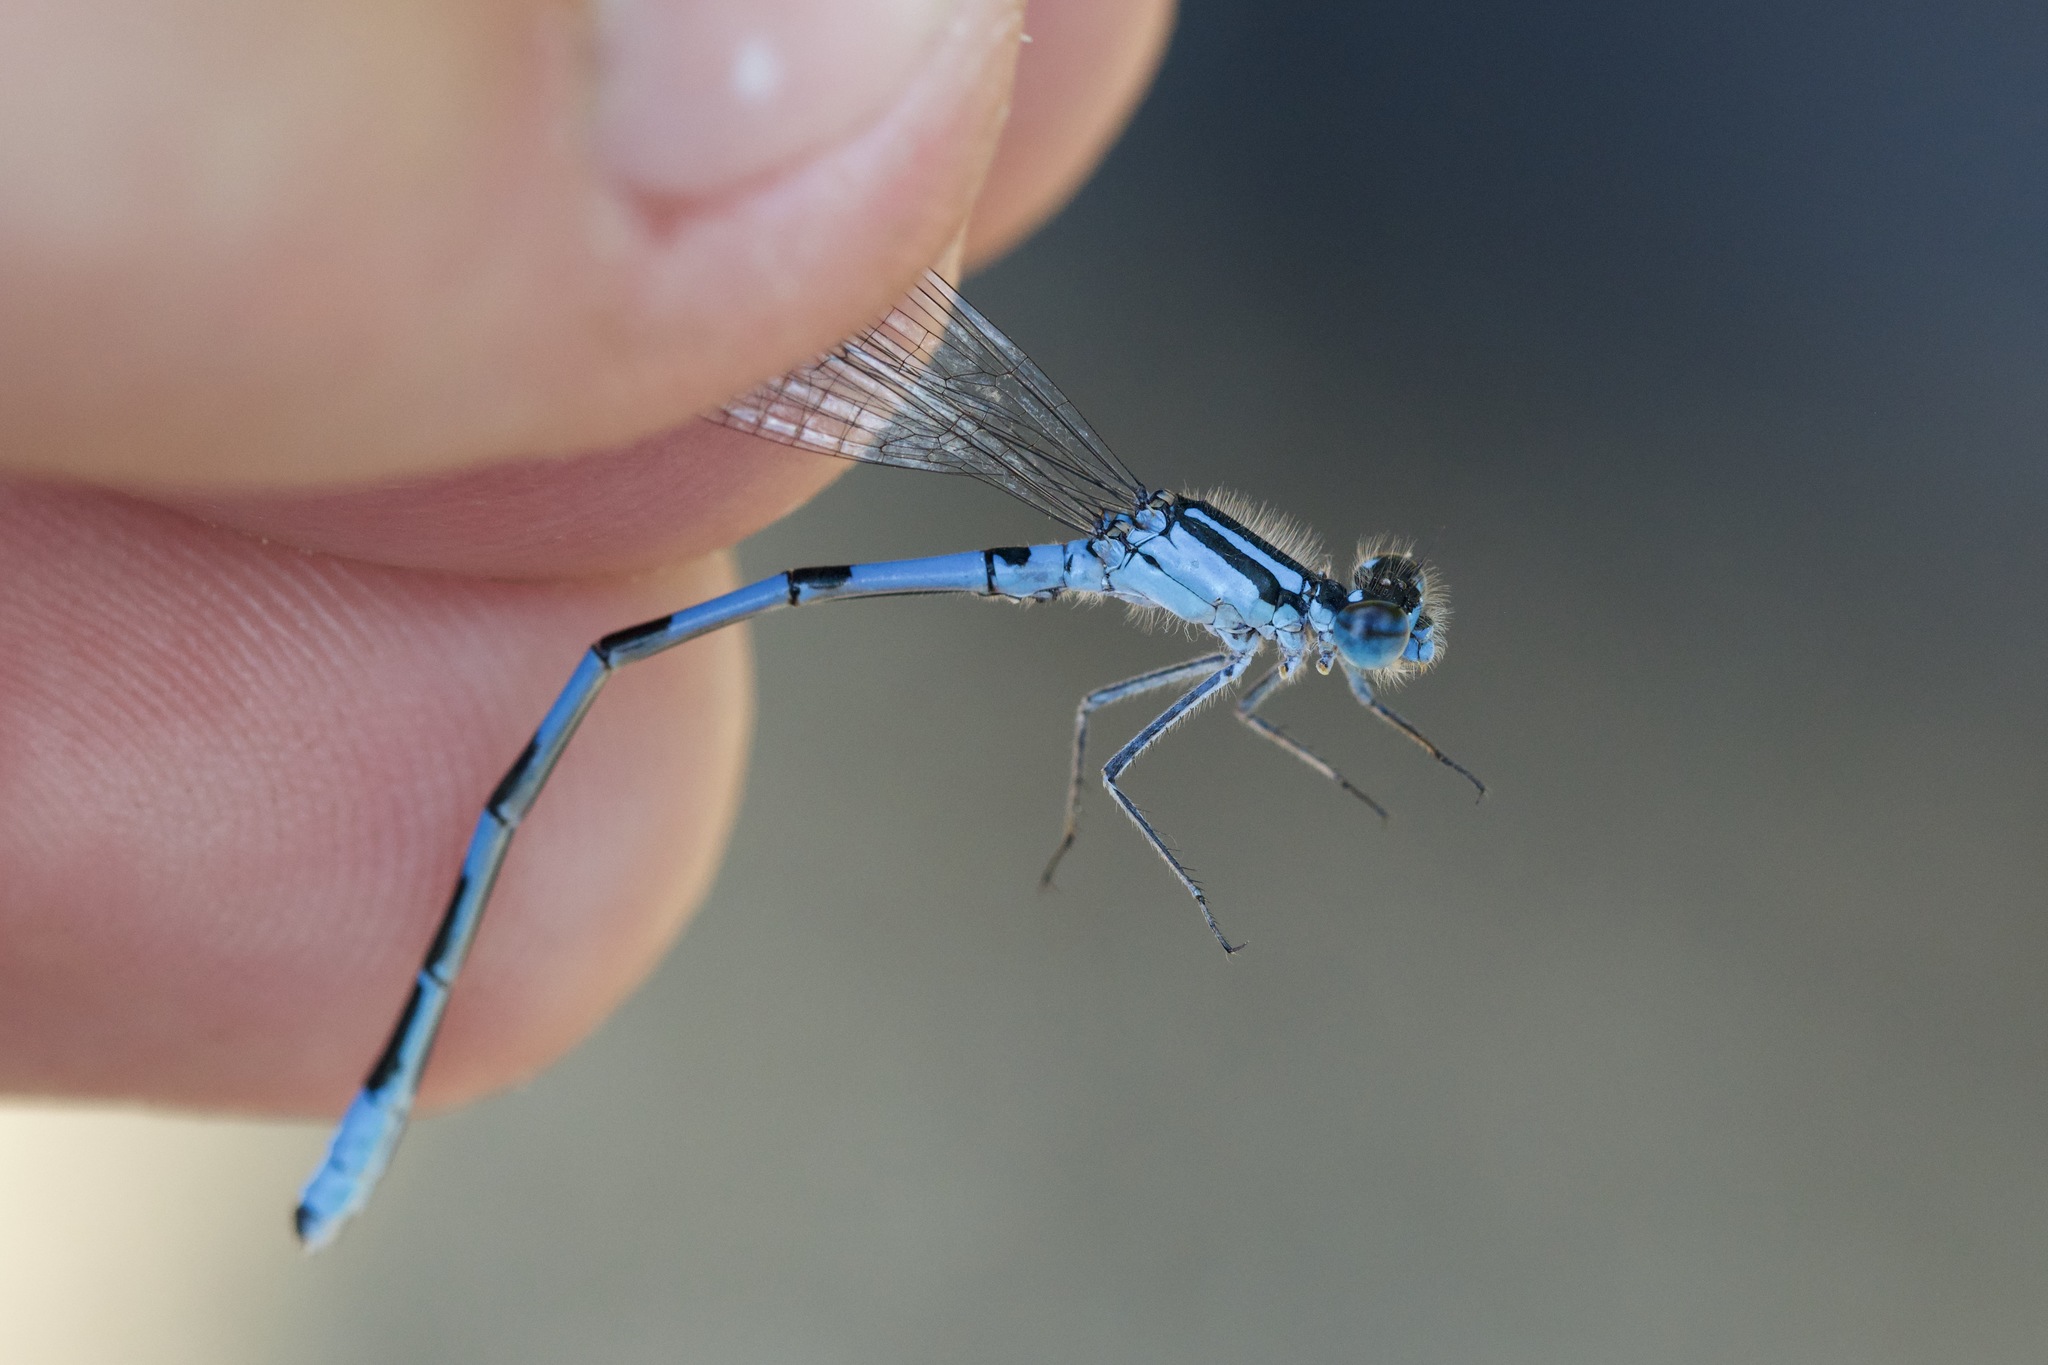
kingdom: Animalia
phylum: Arthropoda
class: Insecta
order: Odonata
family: Coenagrionidae
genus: Enallagma
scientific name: Enallagma hageni
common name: Hagen's bluet
